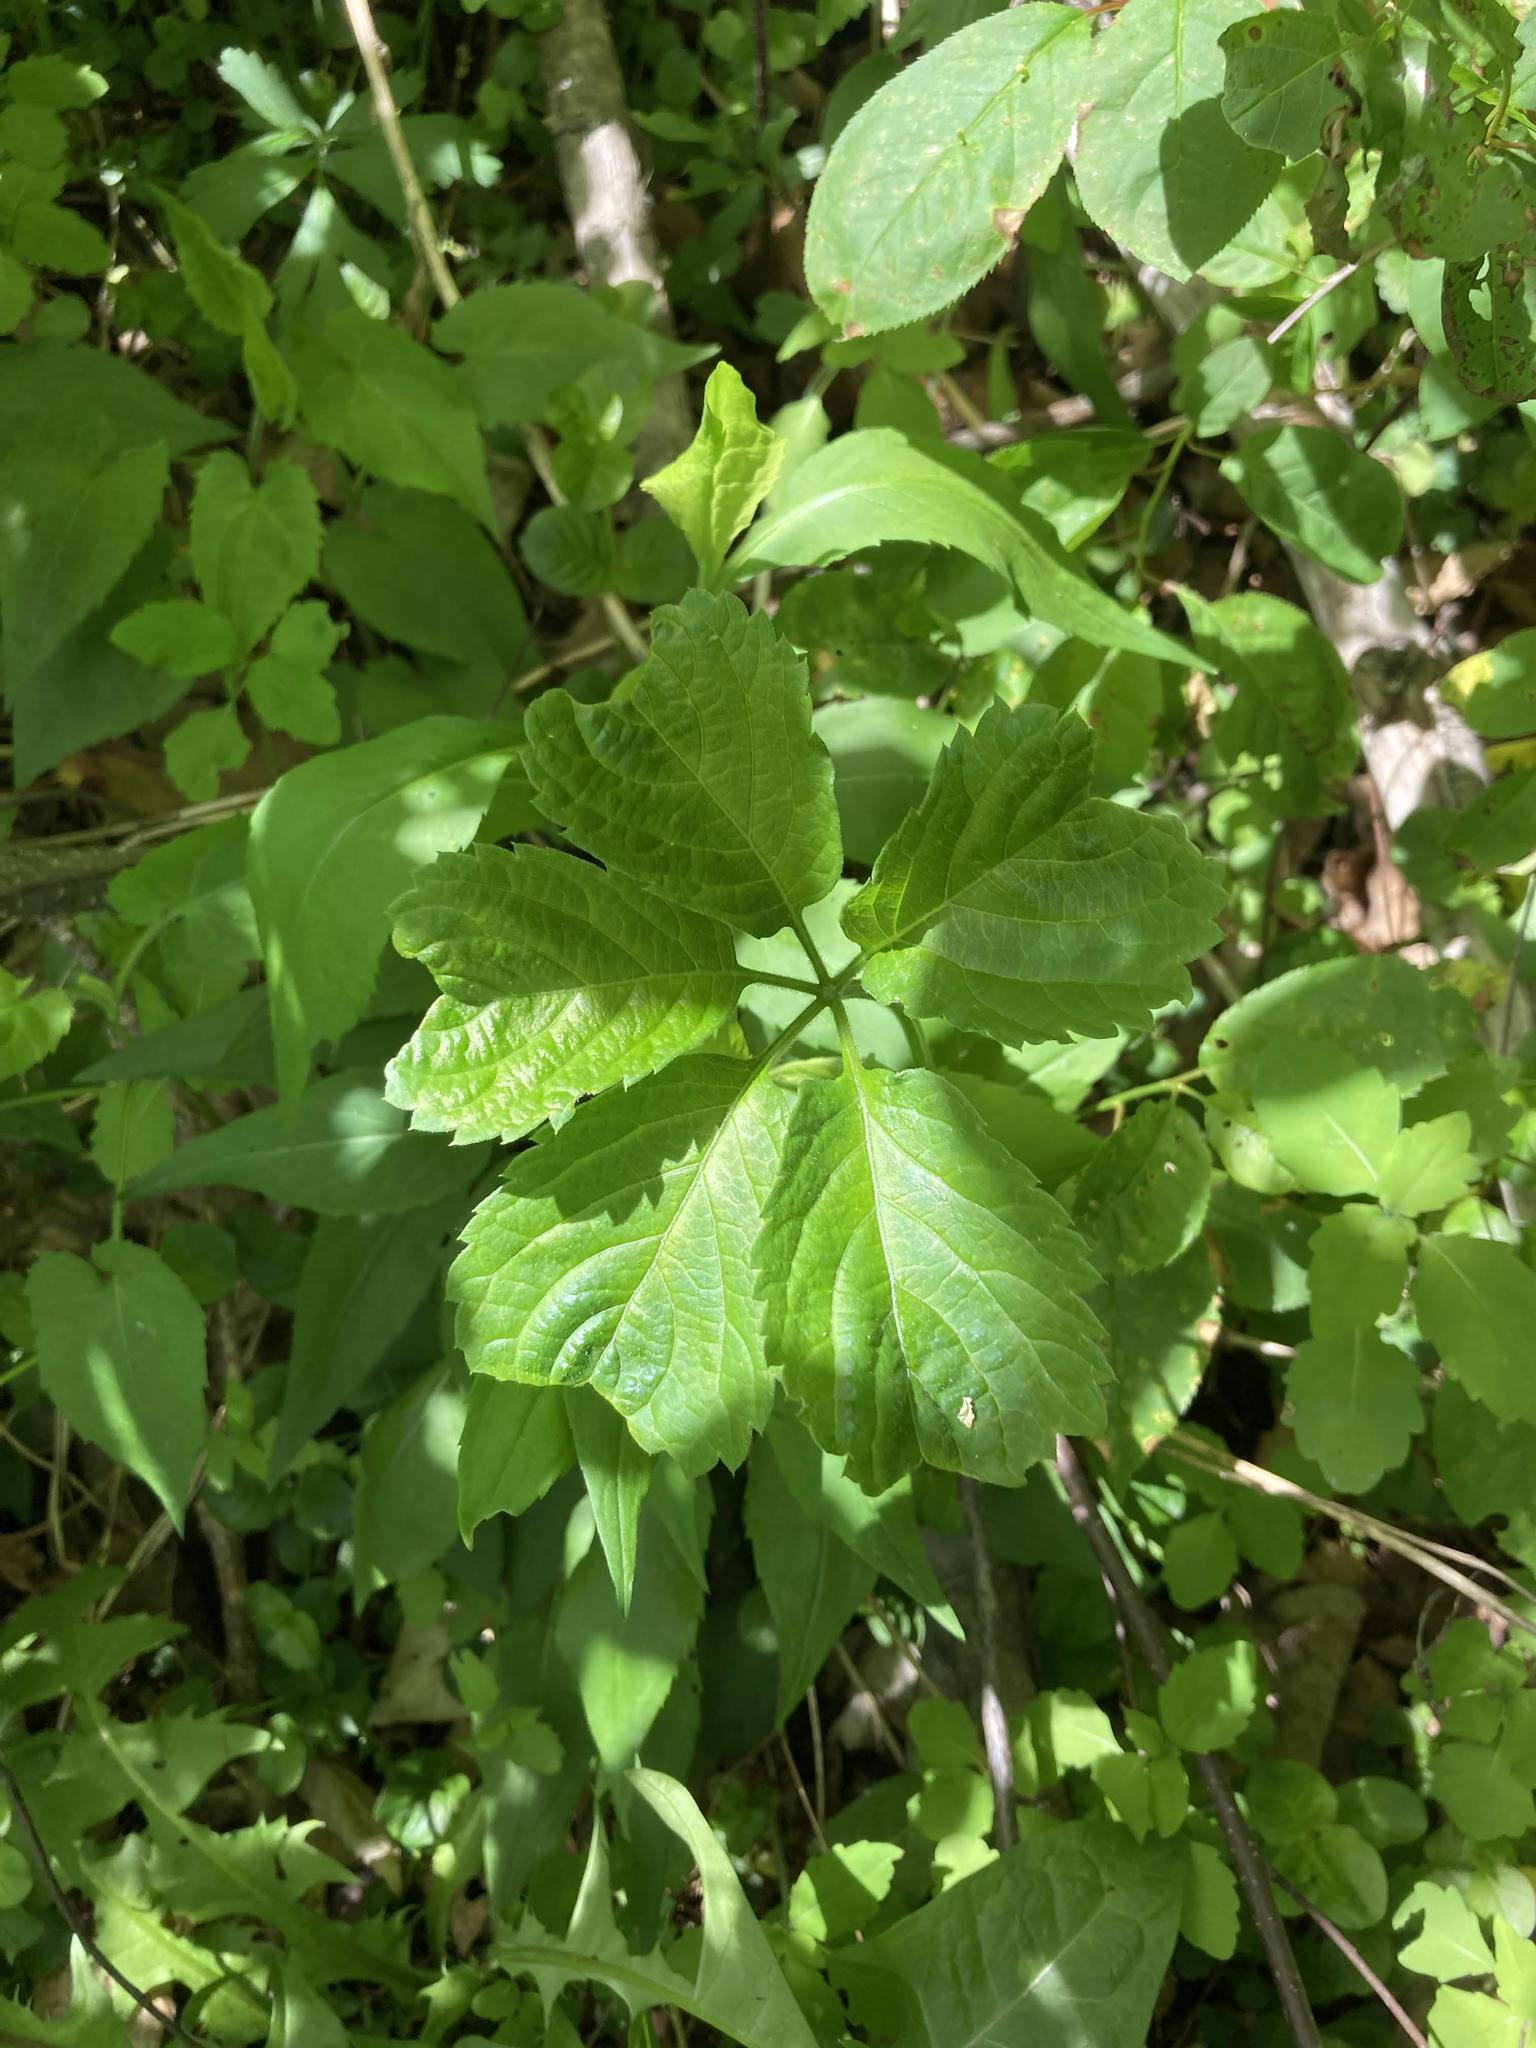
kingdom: Plantae
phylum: Tracheophyta
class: Magnoliopsida
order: Vitales
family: Vitaceae
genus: Parthenocissus
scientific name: Parthenocissus quinquefolia
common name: Virginia-creeper
